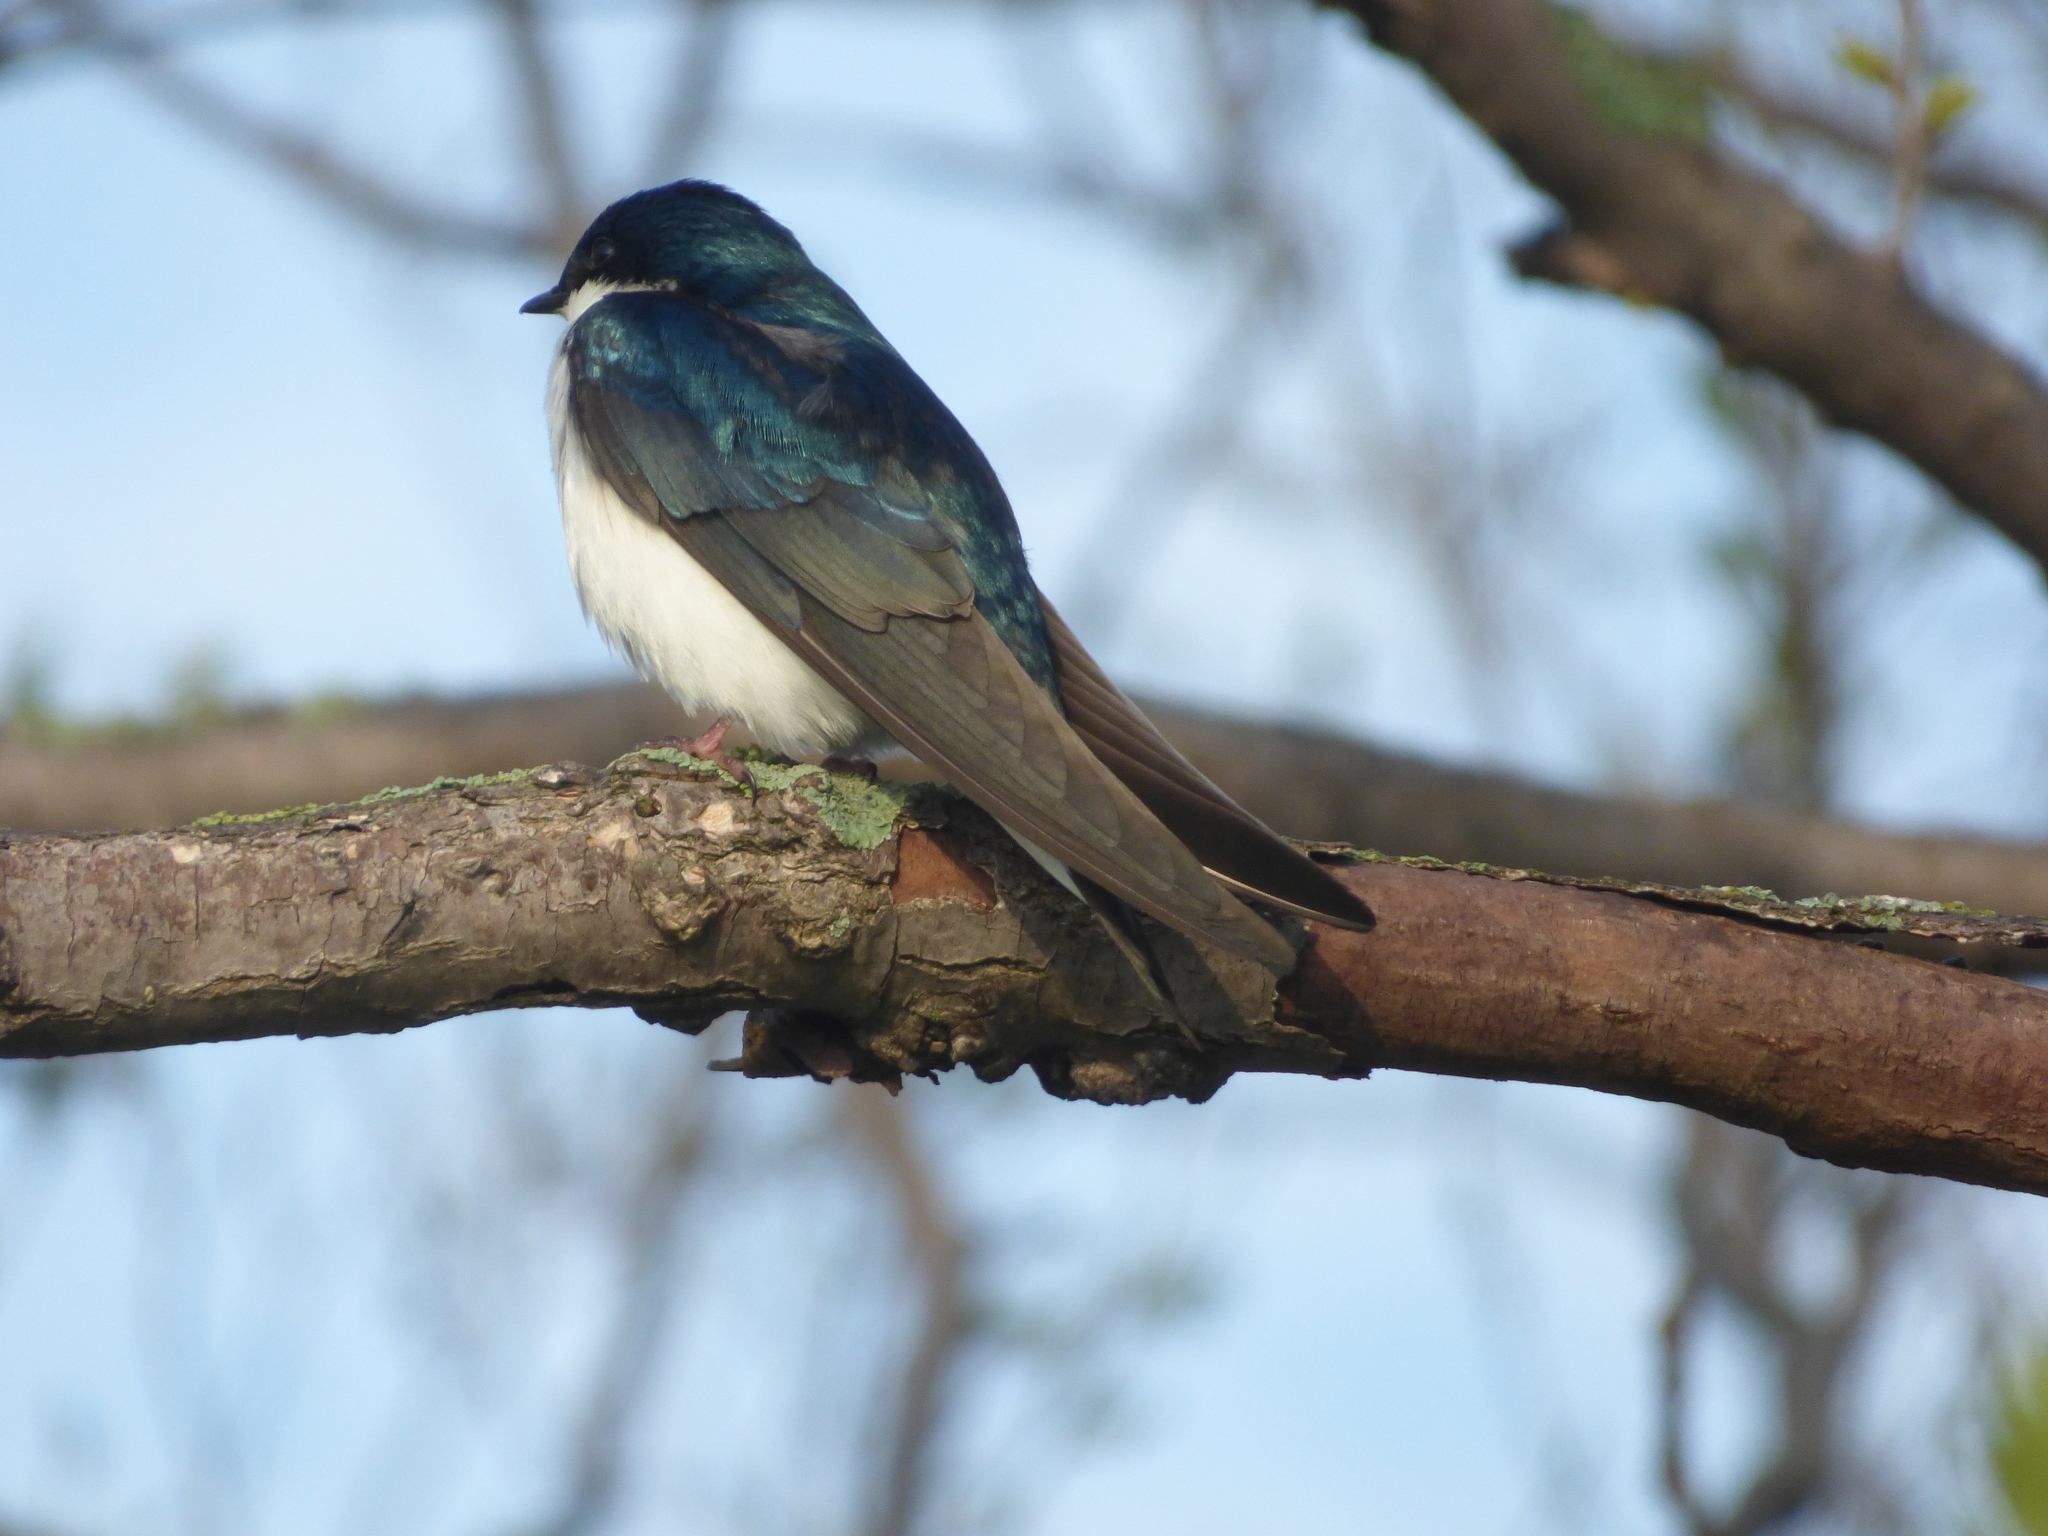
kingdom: Animalia
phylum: Chordata
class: Aves
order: Passeriformes
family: Hirundinidae
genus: Tachycineta
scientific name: Tachycineta bicolor
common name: Tree swallow
